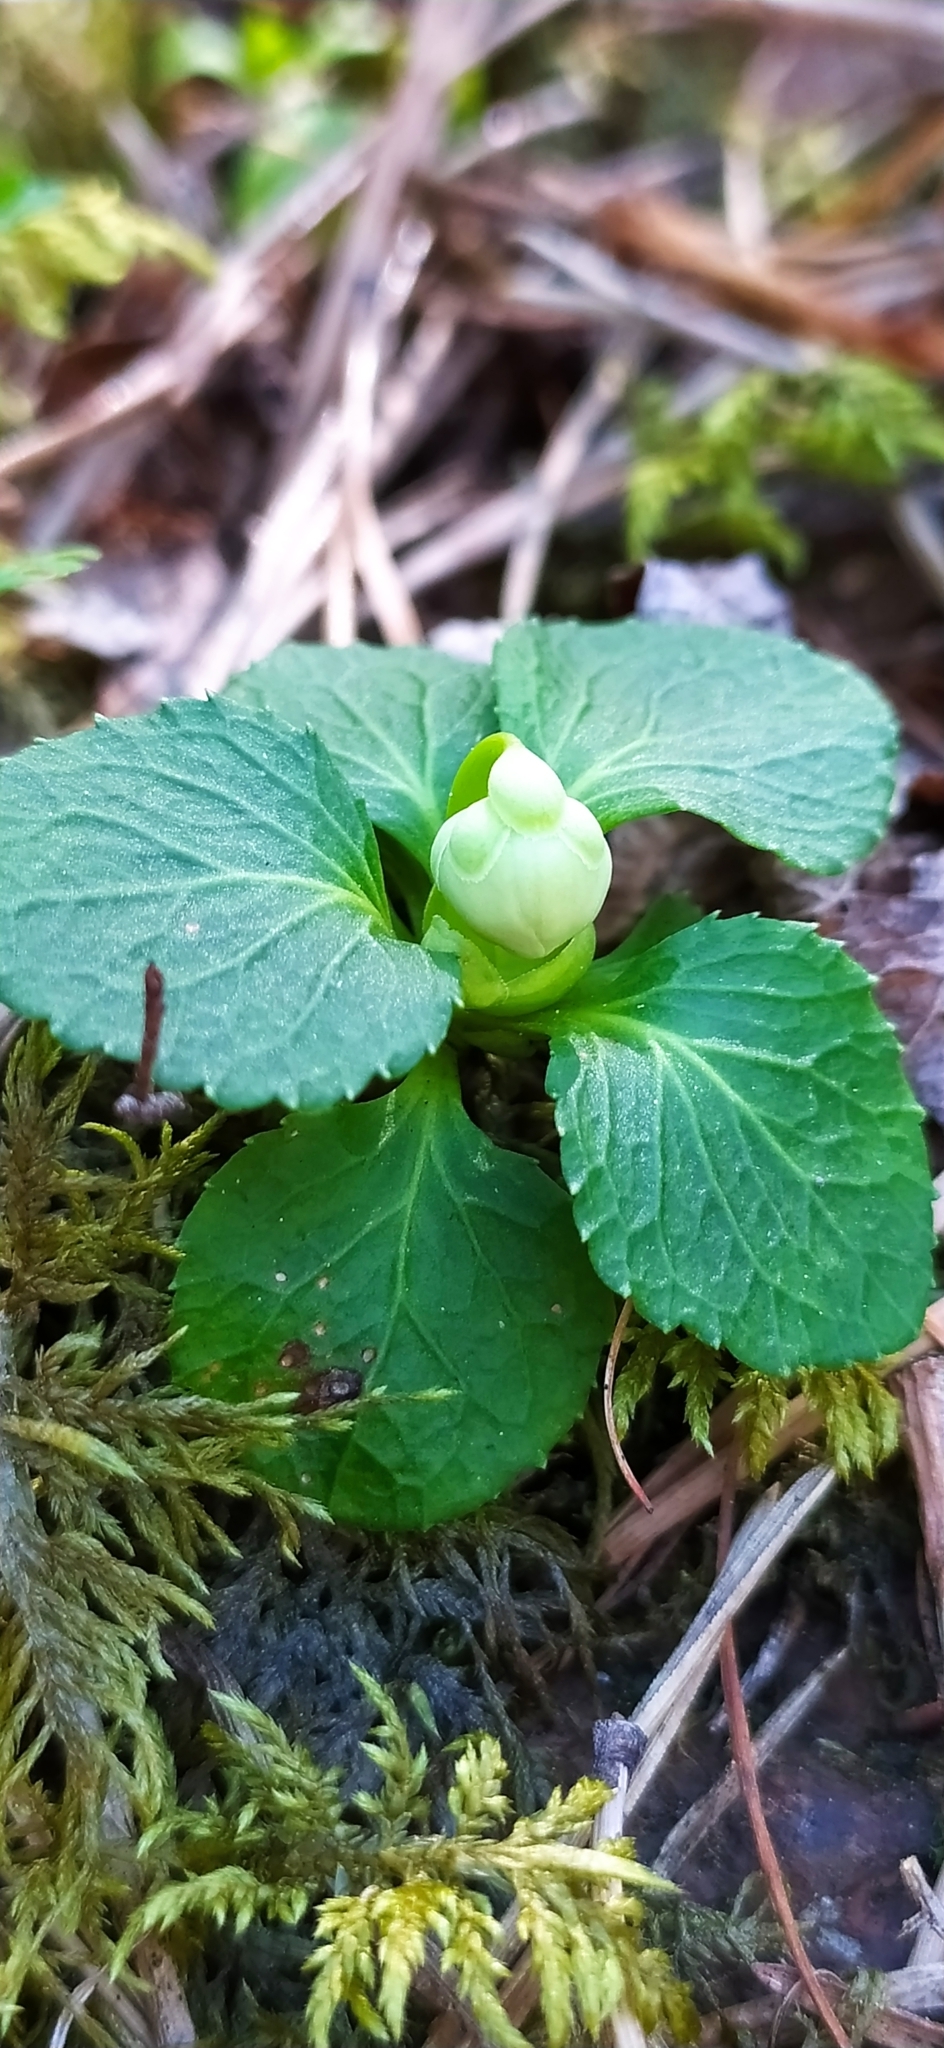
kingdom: Plantae
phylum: Tracheophyta
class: Magnoliopsida
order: Ericales
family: Ericaceae
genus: Moneses
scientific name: Moneses uniflora
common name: One-flowered wintergreen
